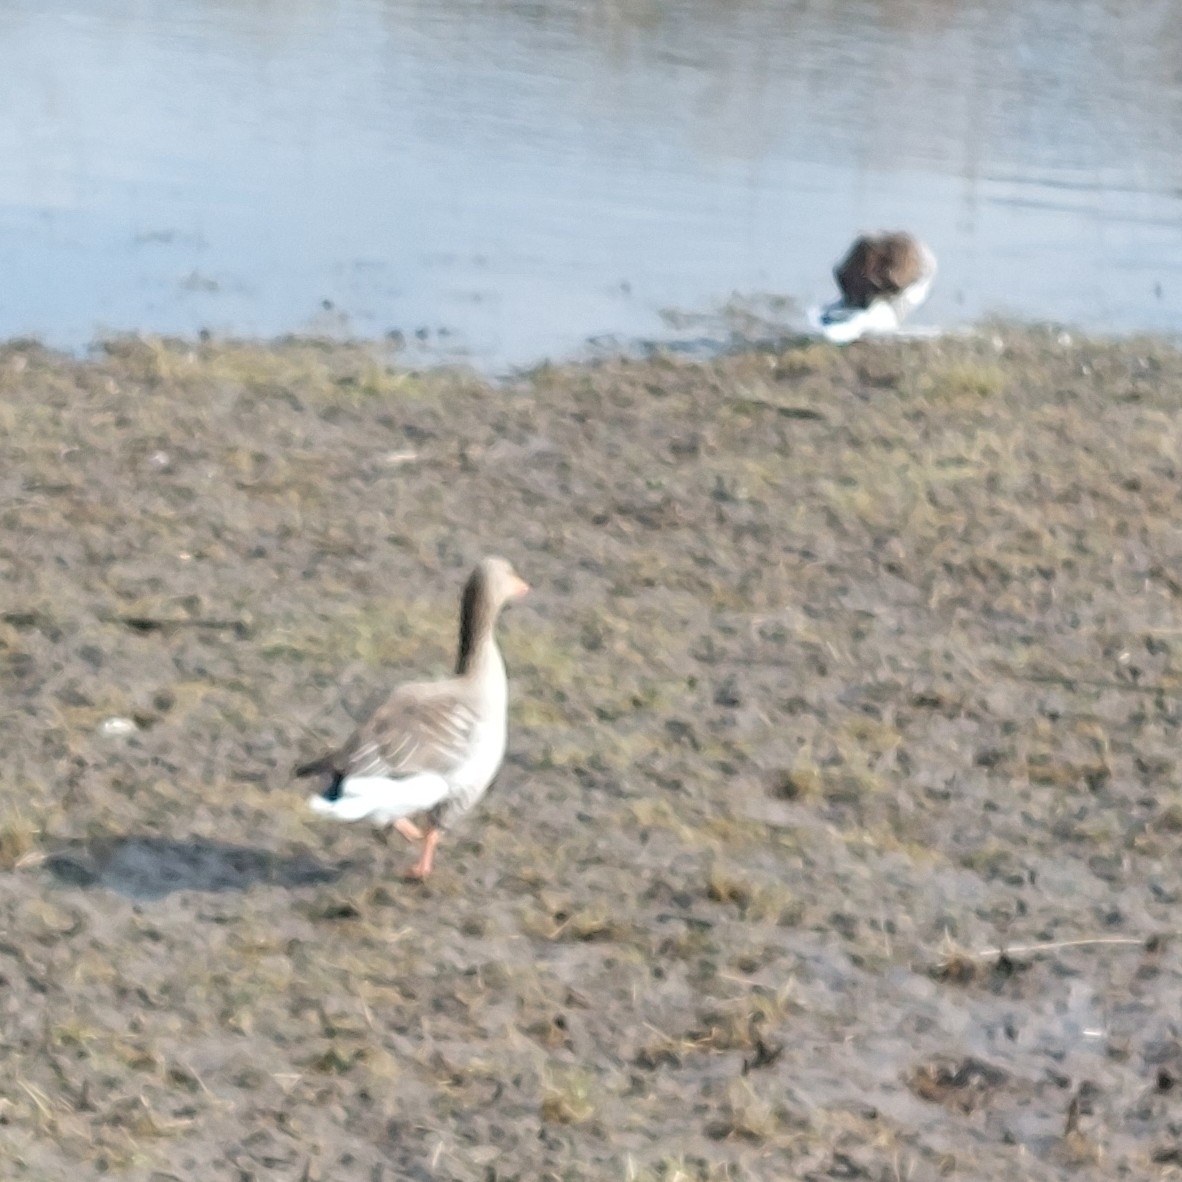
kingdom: Animalia
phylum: Chordata
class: Aves
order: Anseriformes
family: Anatidae
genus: Anser
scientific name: Anser anser
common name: Greylag goose
